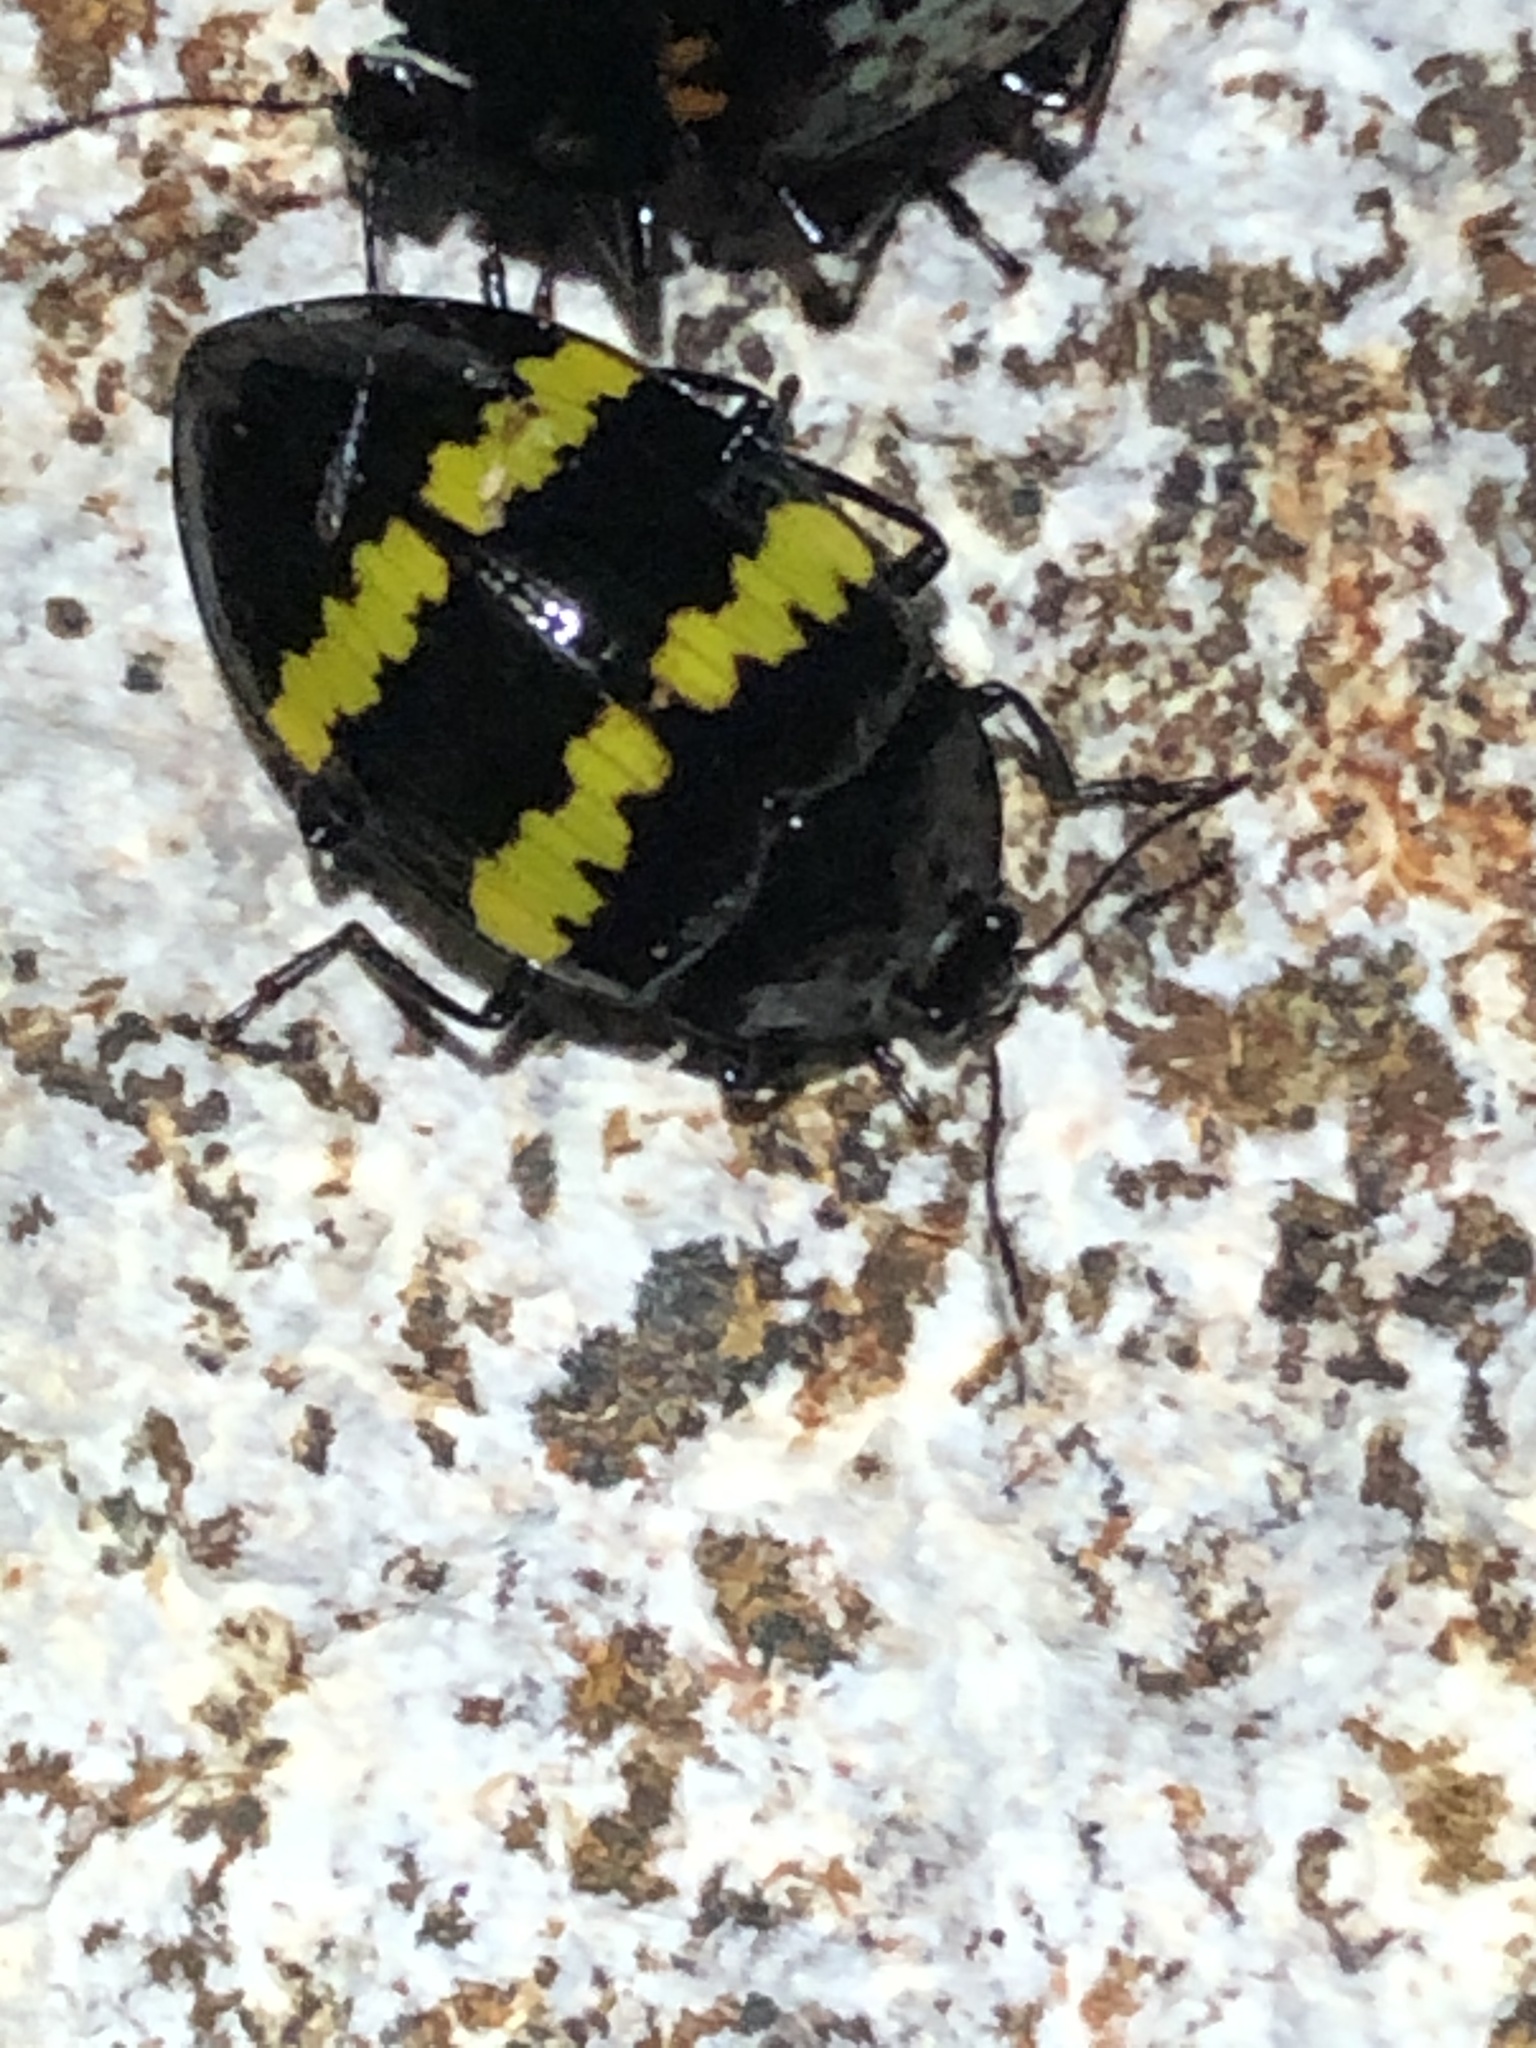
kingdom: Animalia
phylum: Arthropoda
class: Insecta
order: Coleoptera
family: Erotylidae
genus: Prepopharus
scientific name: Prepopharus
